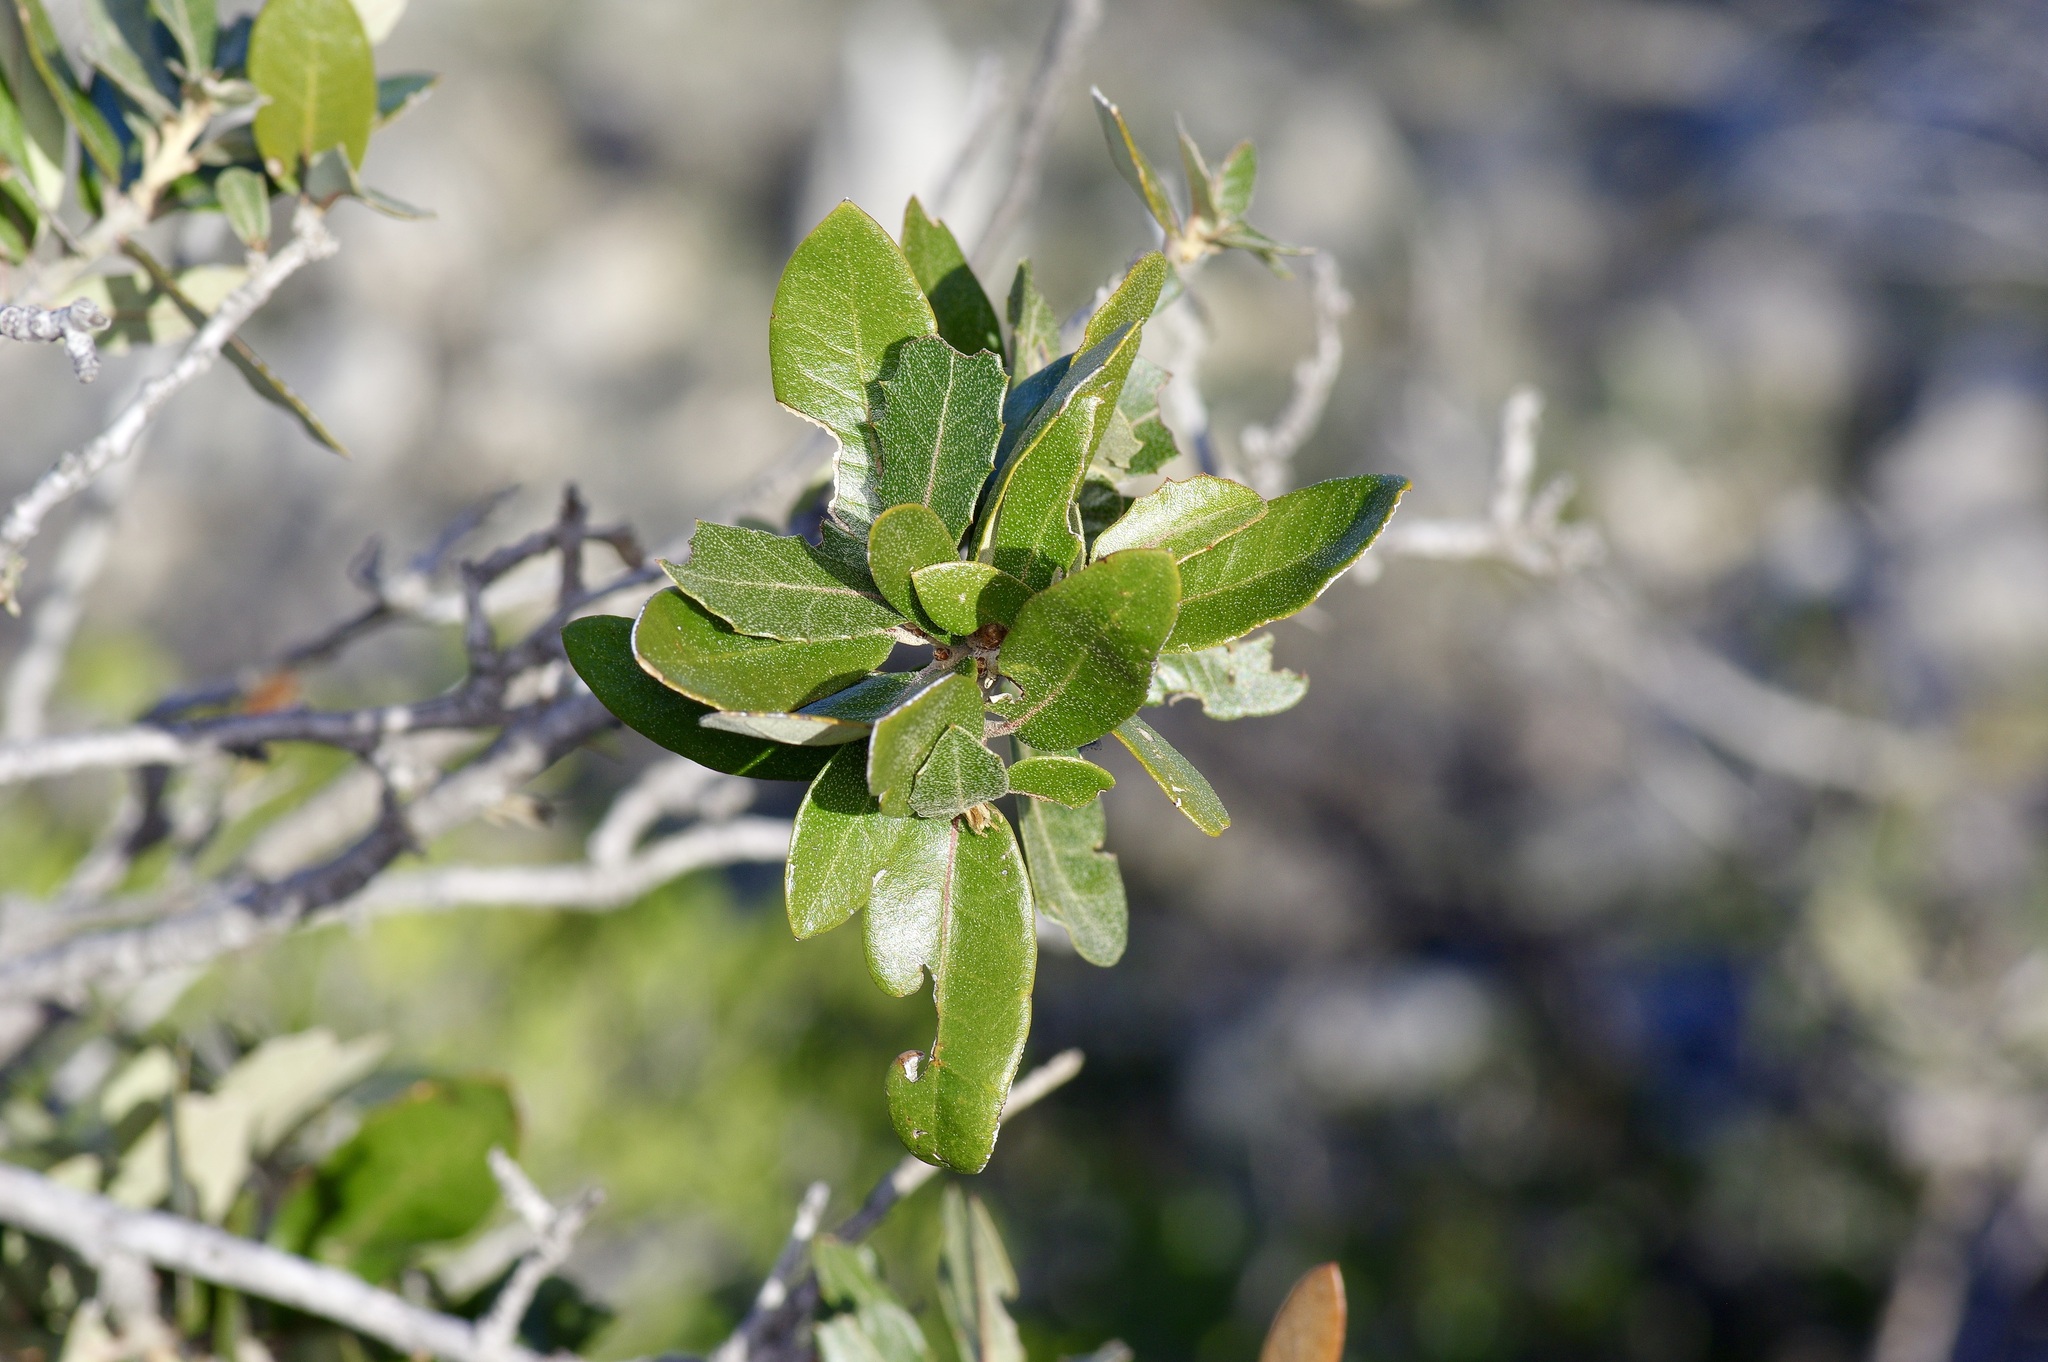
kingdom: Plantae
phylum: Tracheophyta
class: Magnoliopsida
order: Fagales
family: Fagaceae
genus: Quercus
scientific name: Quercus vaseyana
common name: Sandpaper oak
